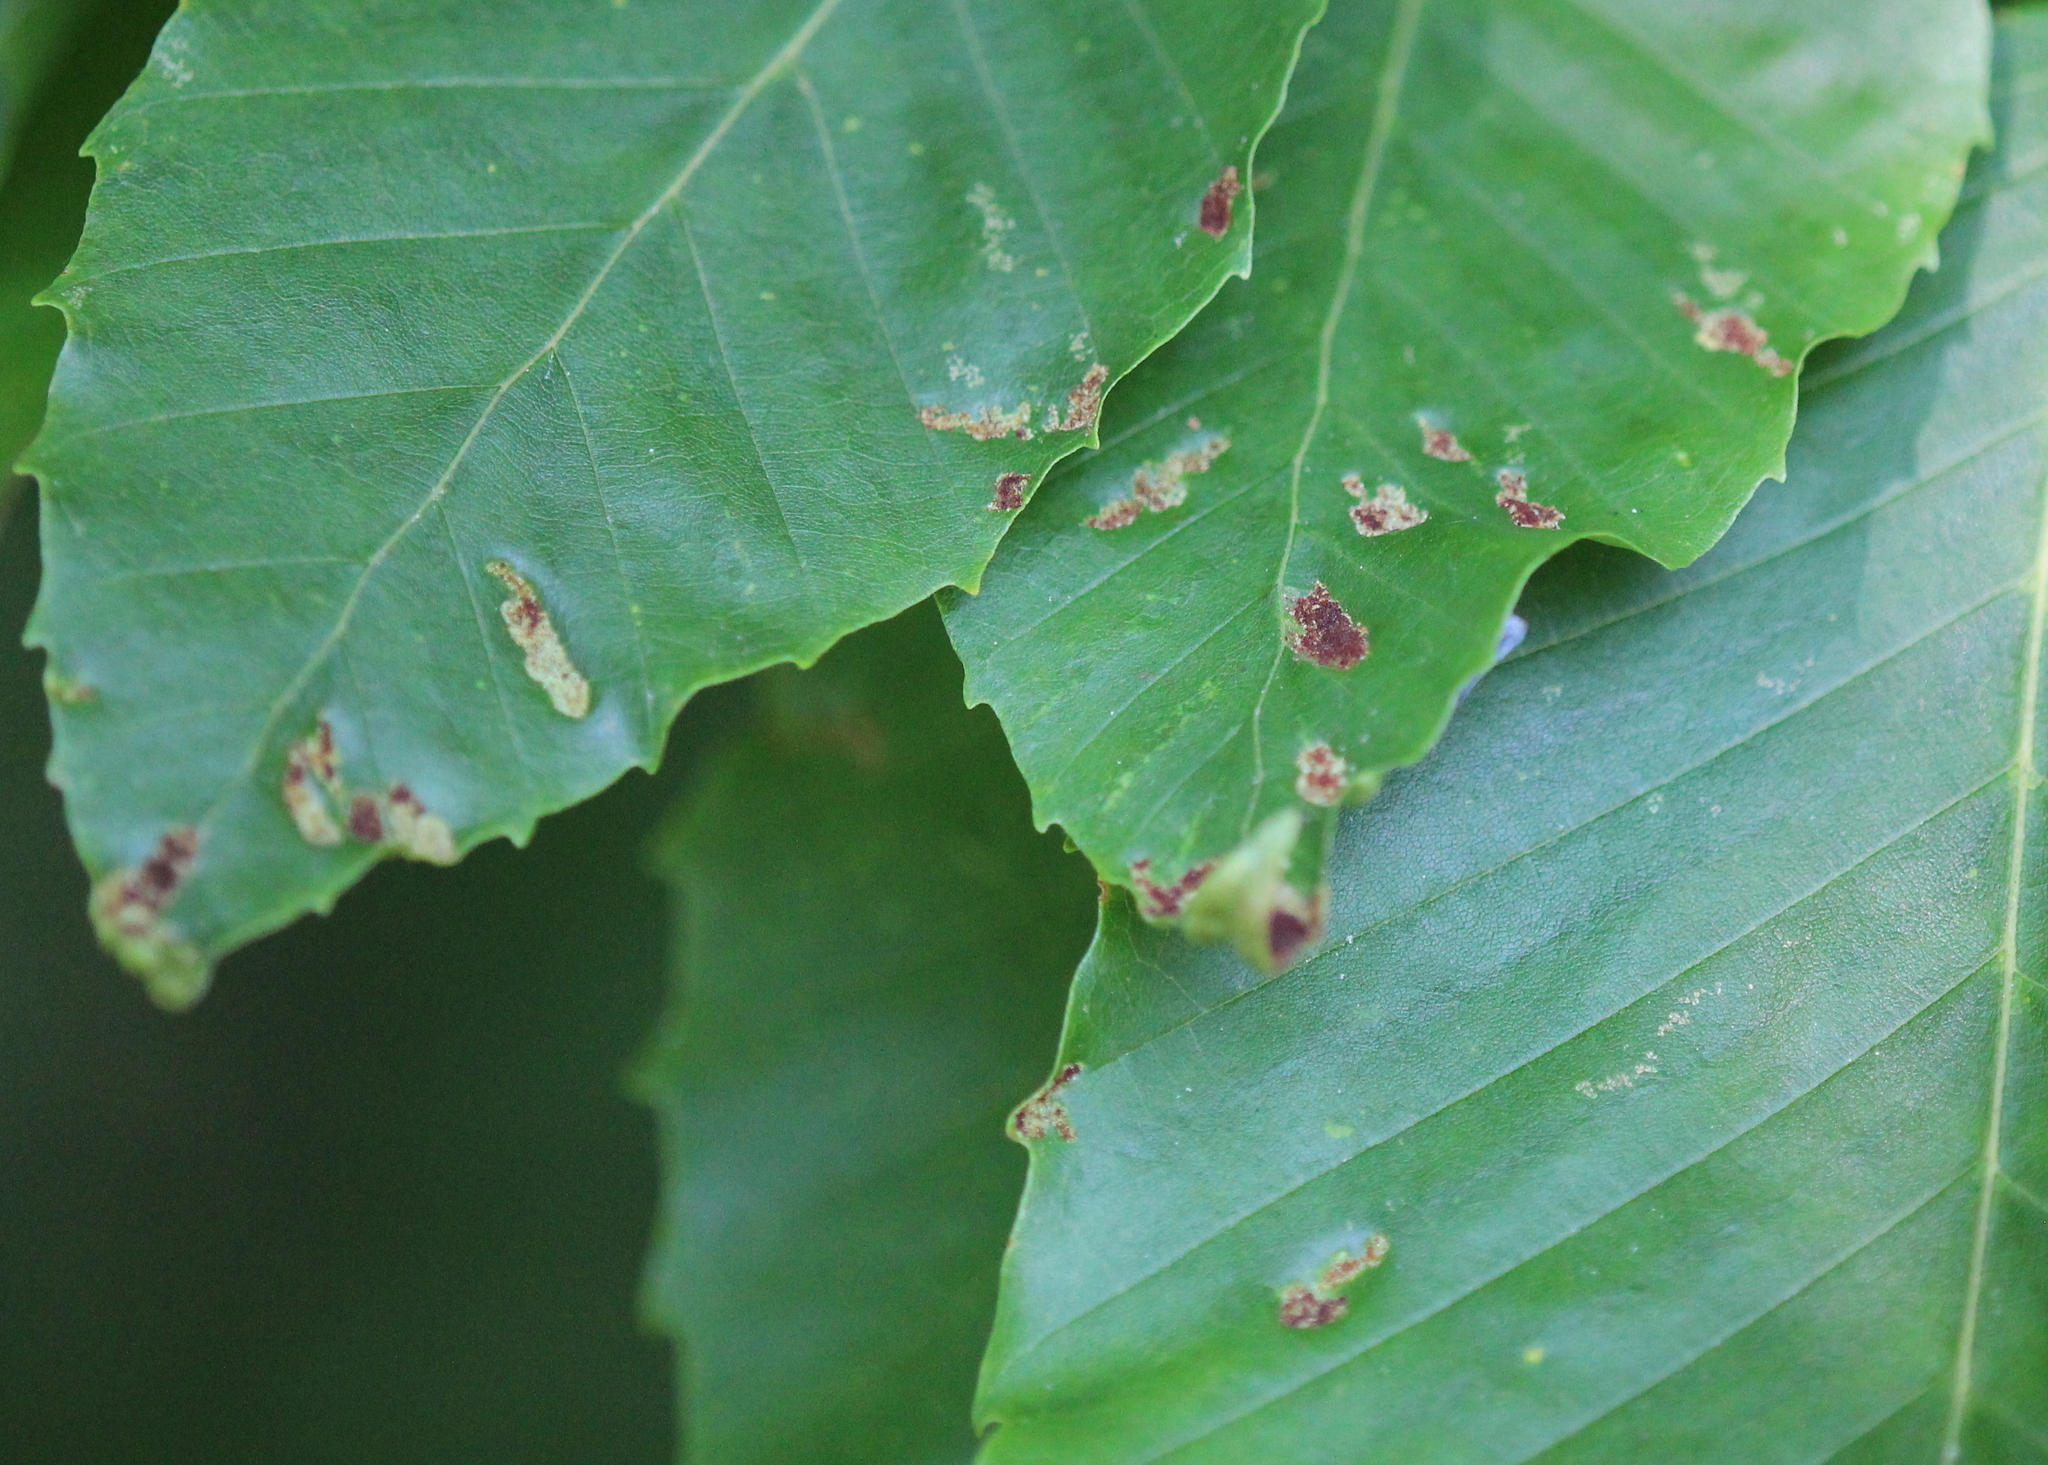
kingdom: Animalia
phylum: Arthropoda
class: Arachnida
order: Trombidiformes
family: Eriophyidae
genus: Acalitus
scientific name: Acalitus
